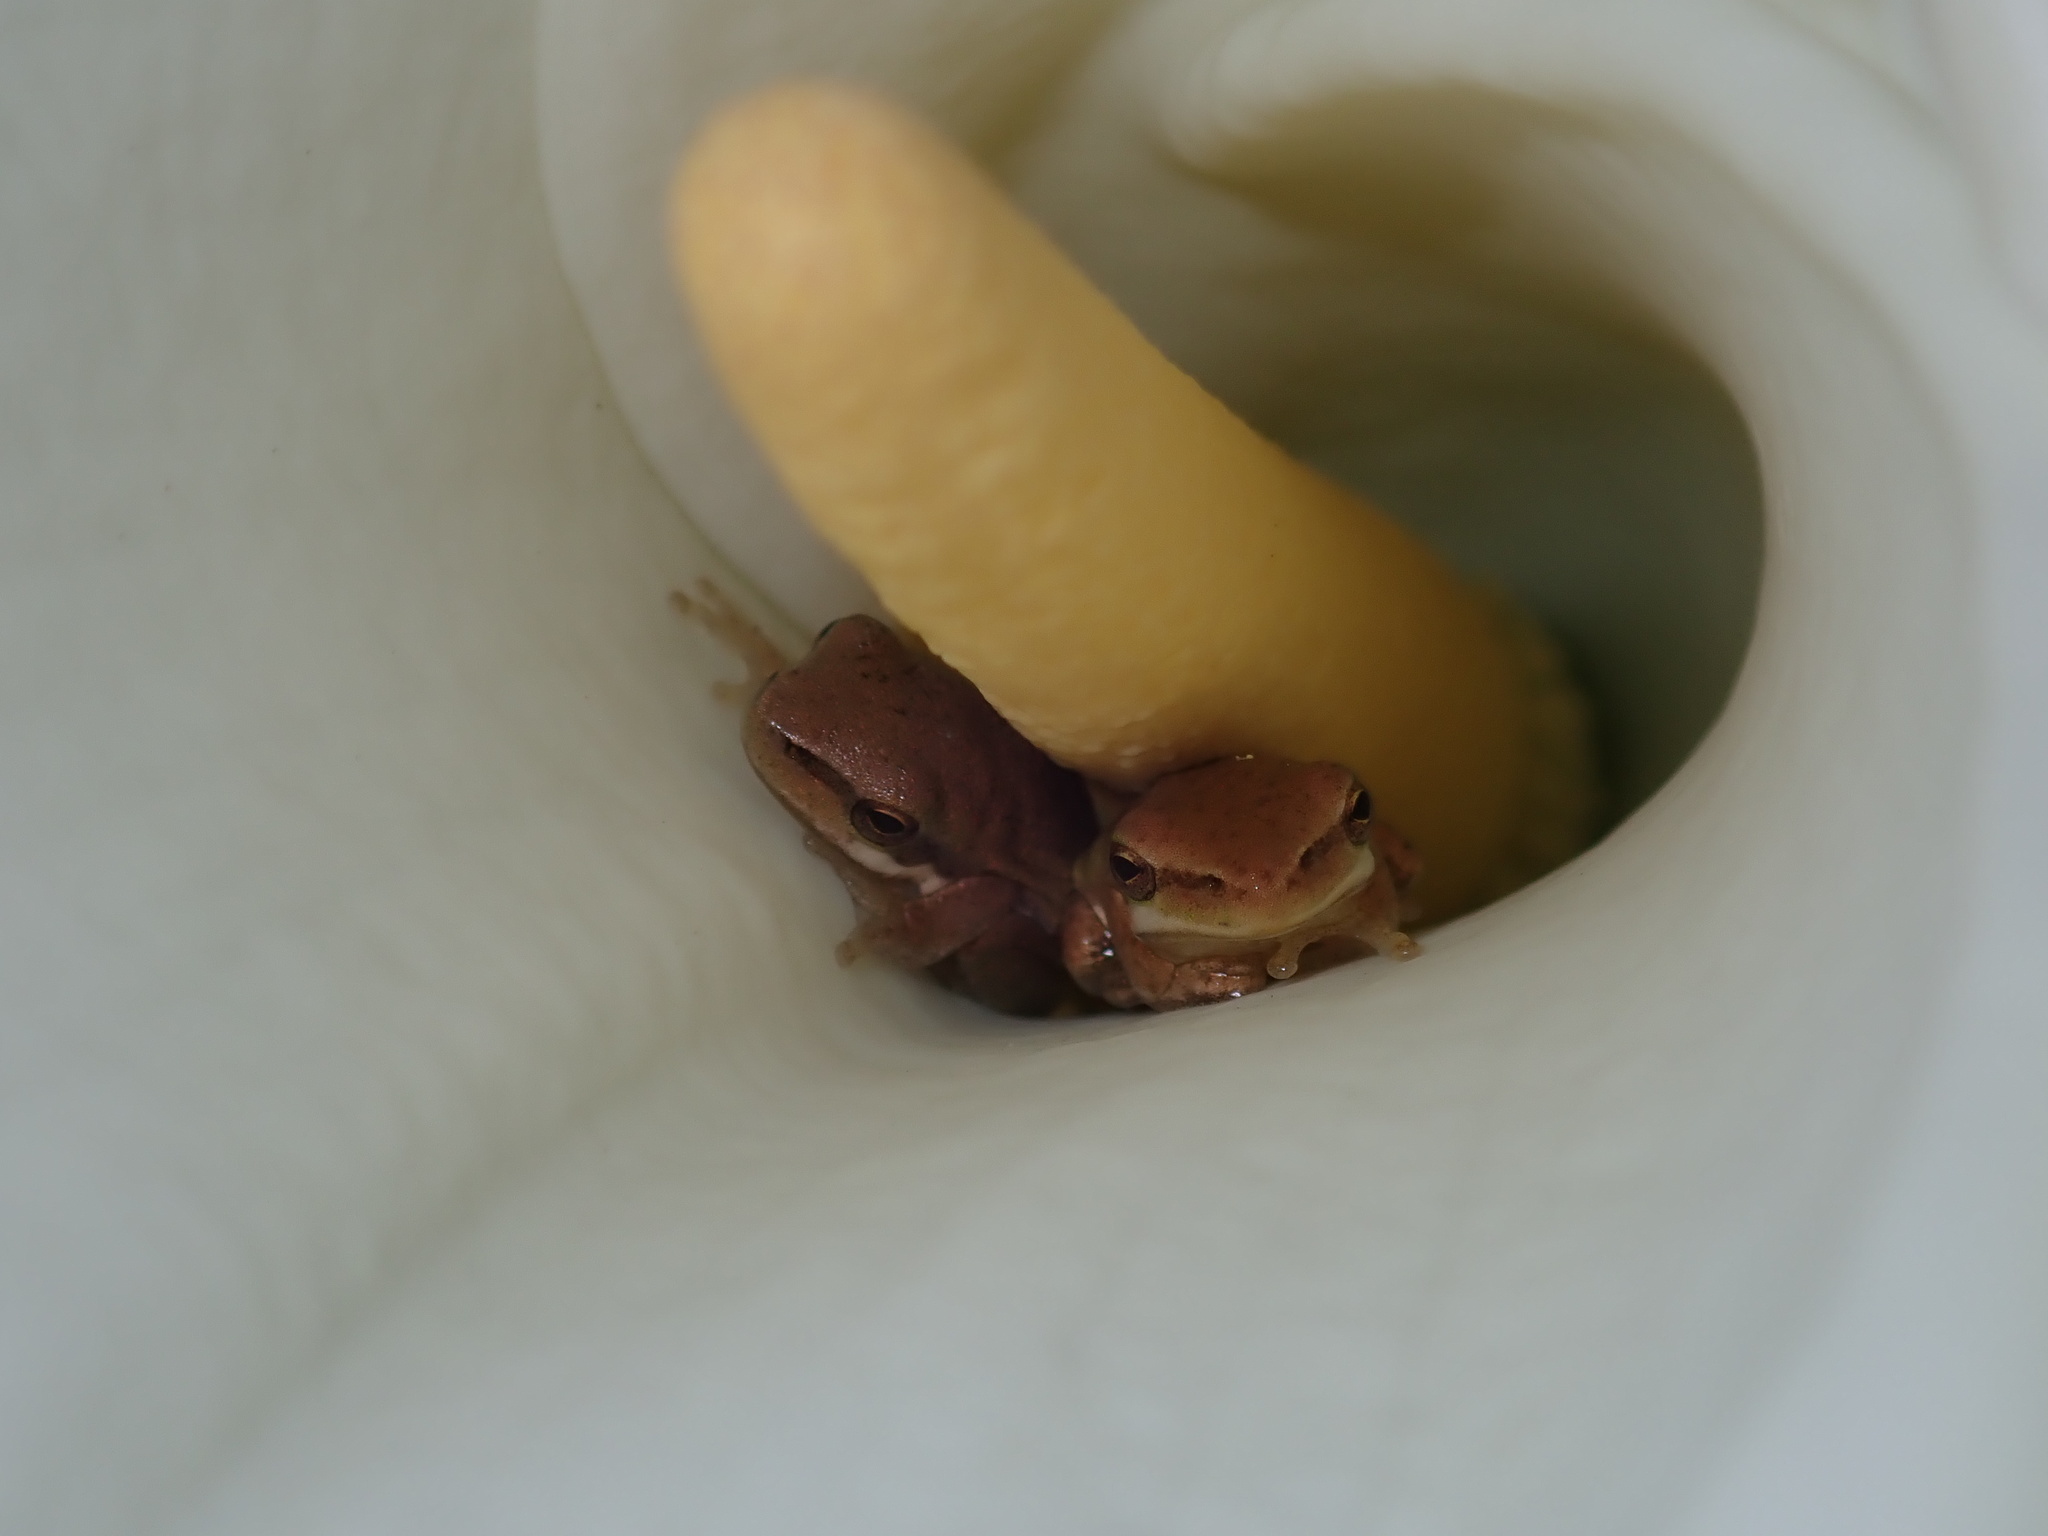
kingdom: Animalia
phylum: Chordata
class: Amphibia
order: Anura
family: Pelodryadidae
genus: Litoria
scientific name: Litoria fallax
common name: Eastern dwarf treefrog
